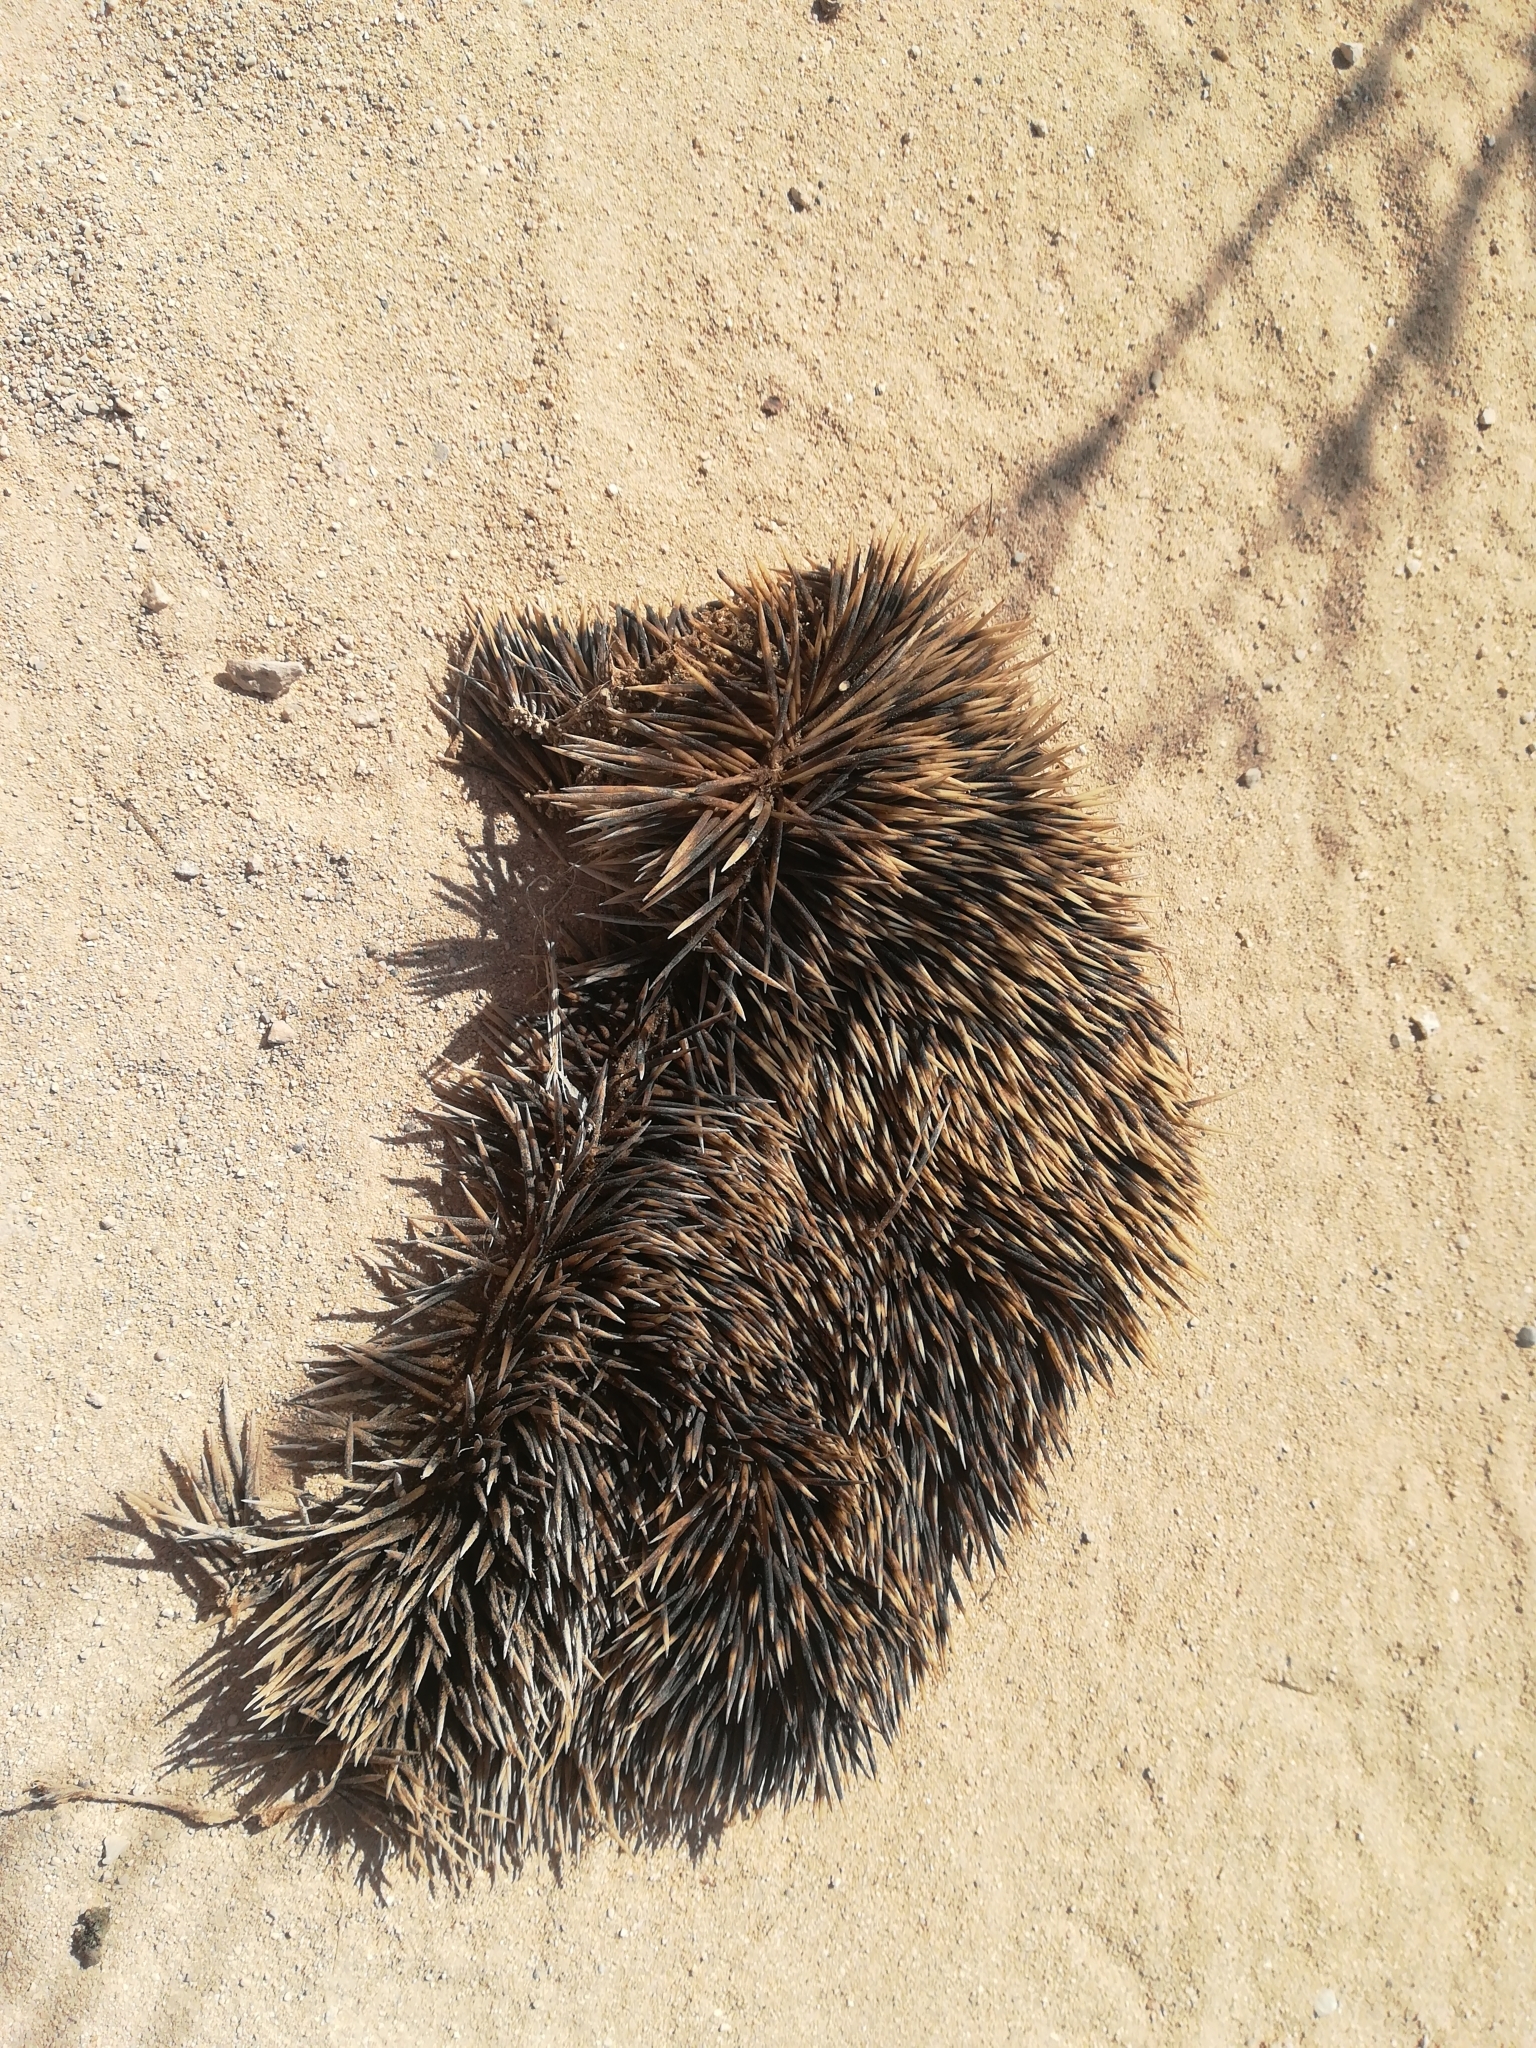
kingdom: Animalia
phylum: Chordata
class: Mammalia
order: Erinaceomorpha
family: Erinaceidae
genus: Erinaceus
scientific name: Erinaceus europaeus
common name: West european hedgehog
